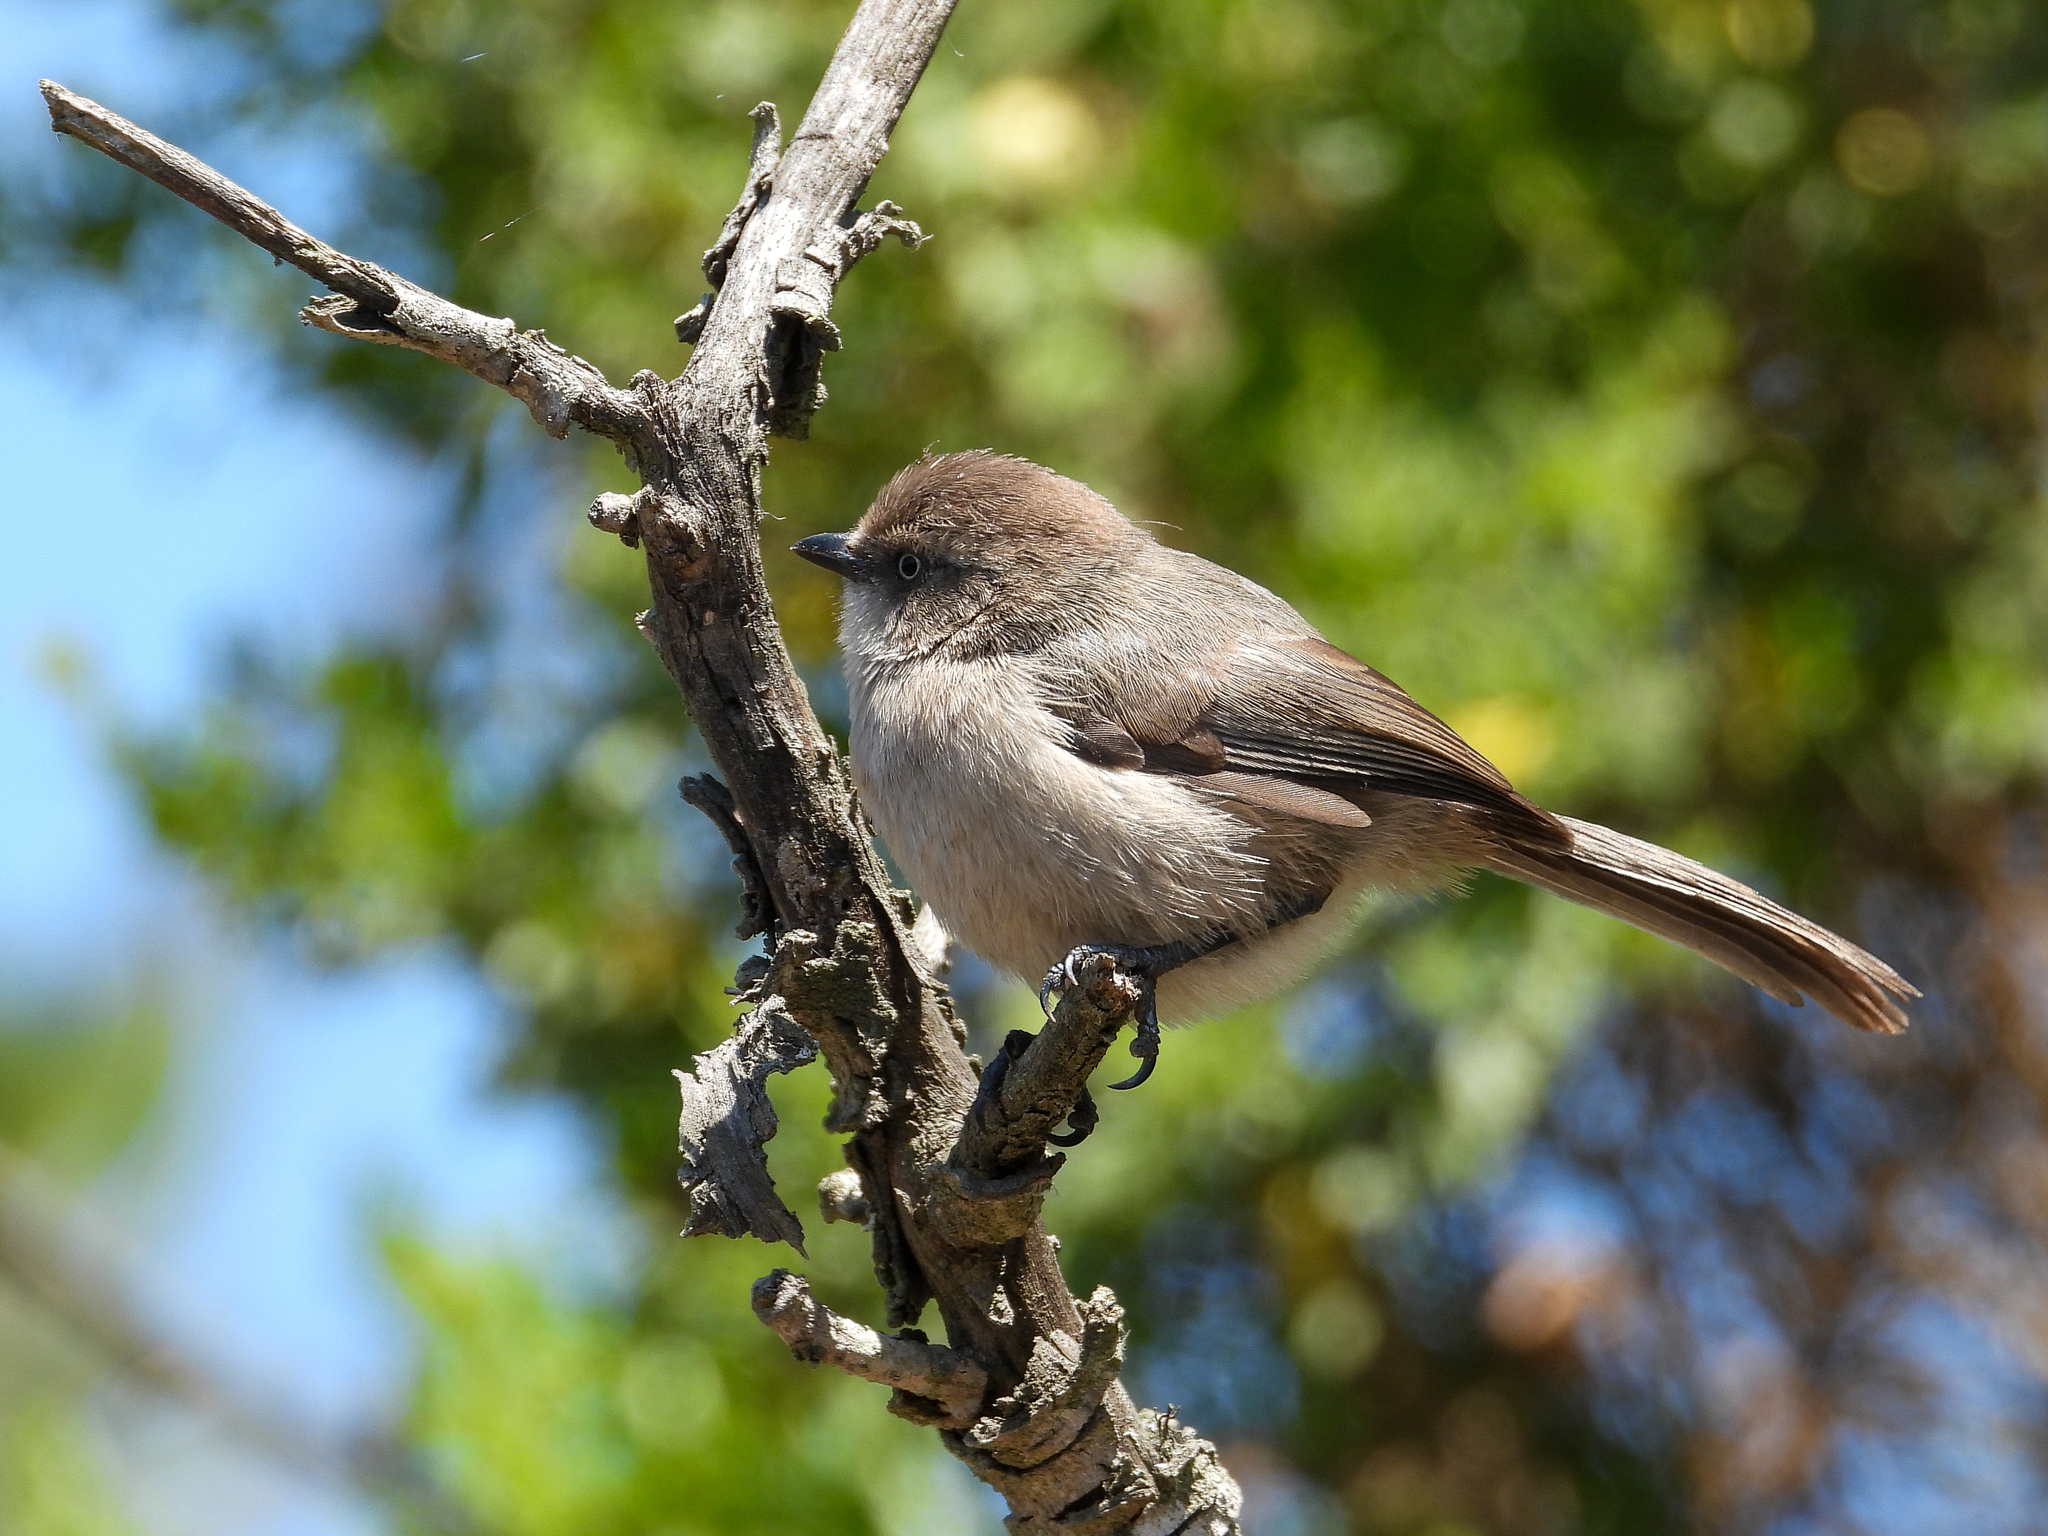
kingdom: Animalia
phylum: Chordata
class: Aves
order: Passeriformes
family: Aegithalidae
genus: Psaltriparus
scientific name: Psaltriparus minimus
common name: American bushtit
